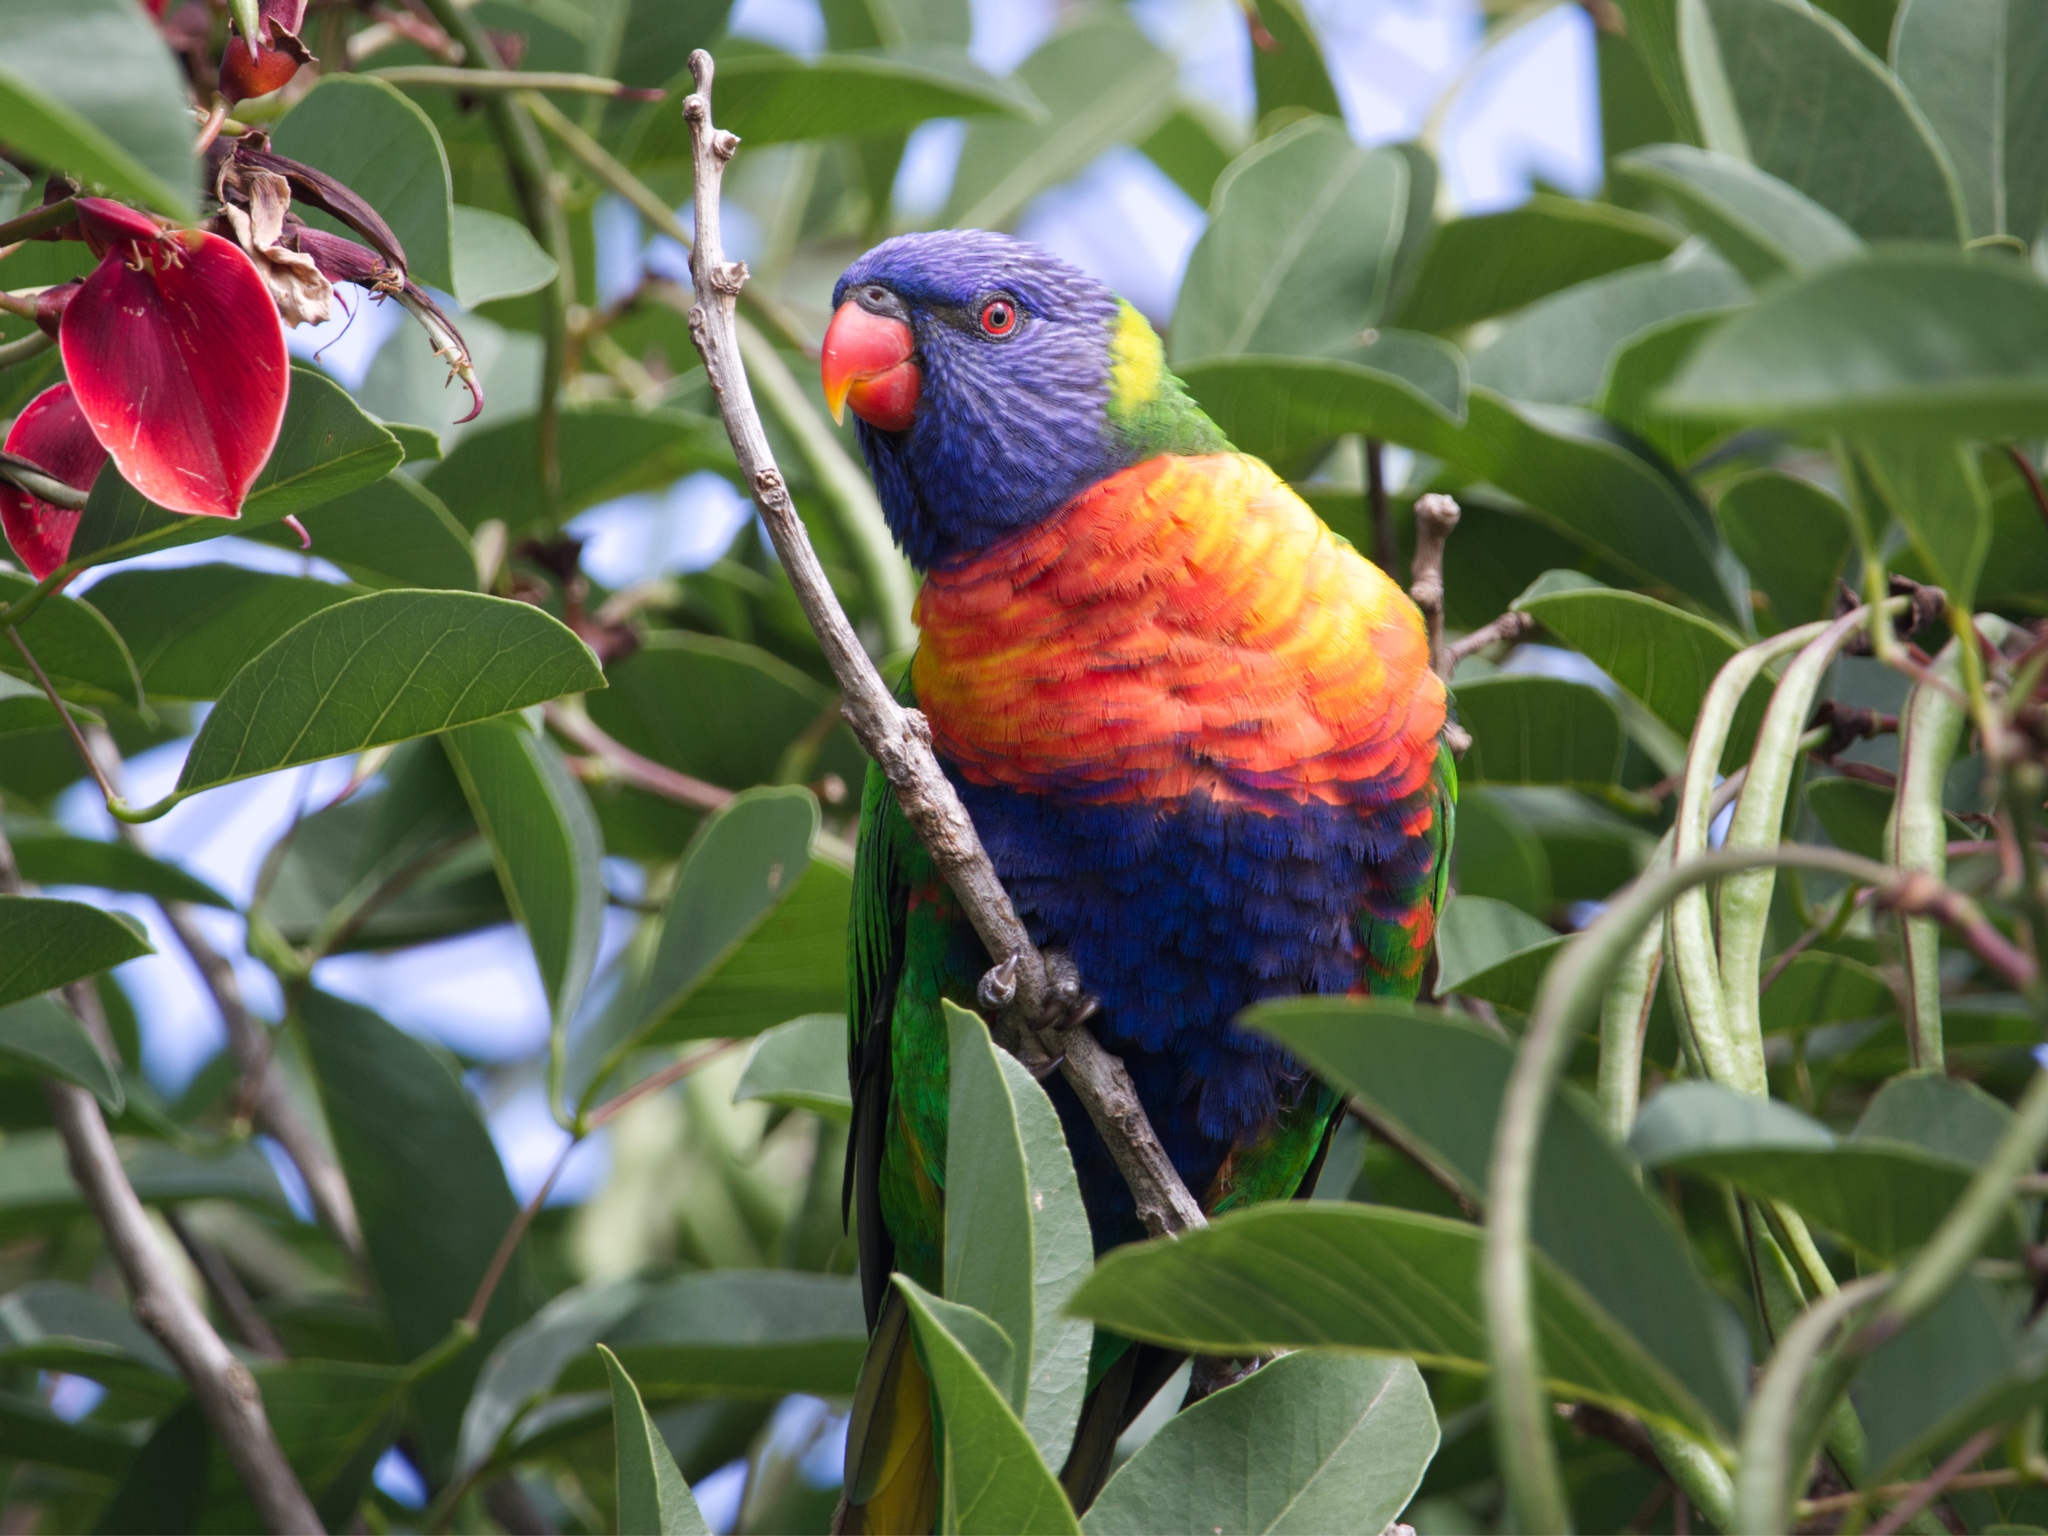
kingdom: Animalia
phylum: Chordata
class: Aves
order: Psittaciformes
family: Psittacidae
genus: Trichoglossus
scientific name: Trichoglossus haematodus
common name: Coconut lorikeet
